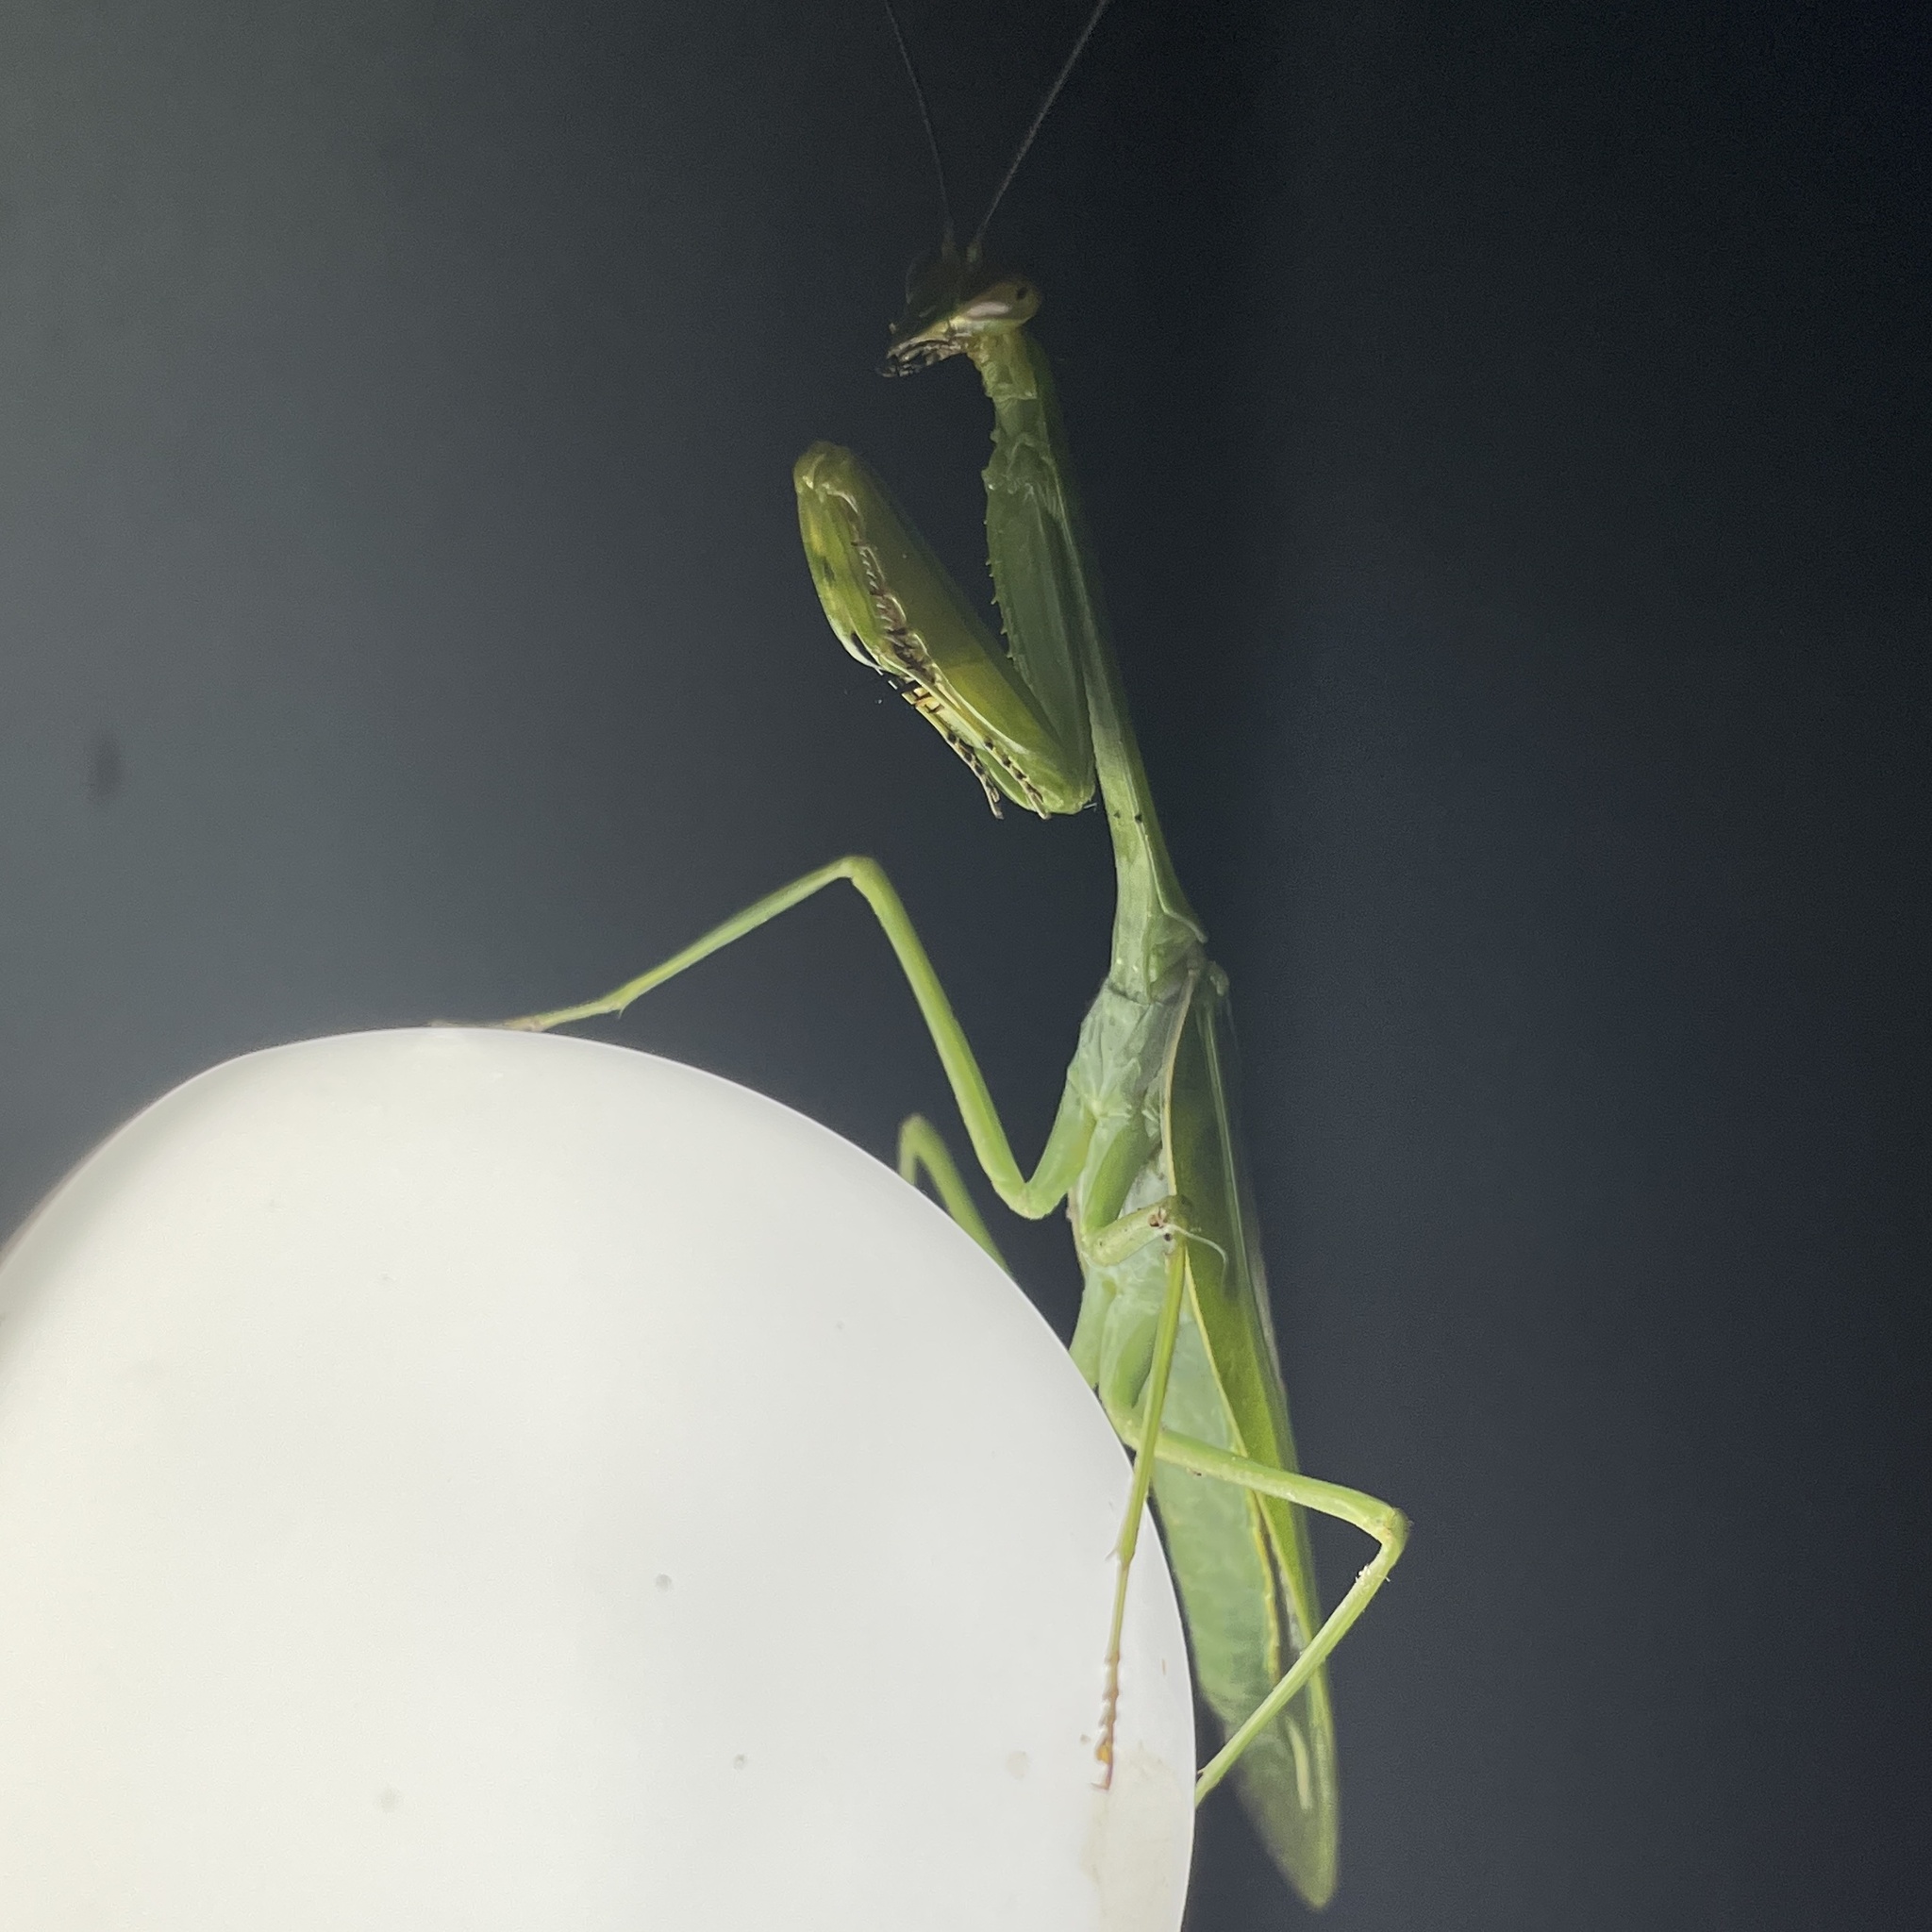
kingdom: Animalia
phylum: Arthropoda
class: Insecta
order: Mantodea
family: Mantidae
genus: Stagmatoptera
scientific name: Stagmatoptera septentrionalis
